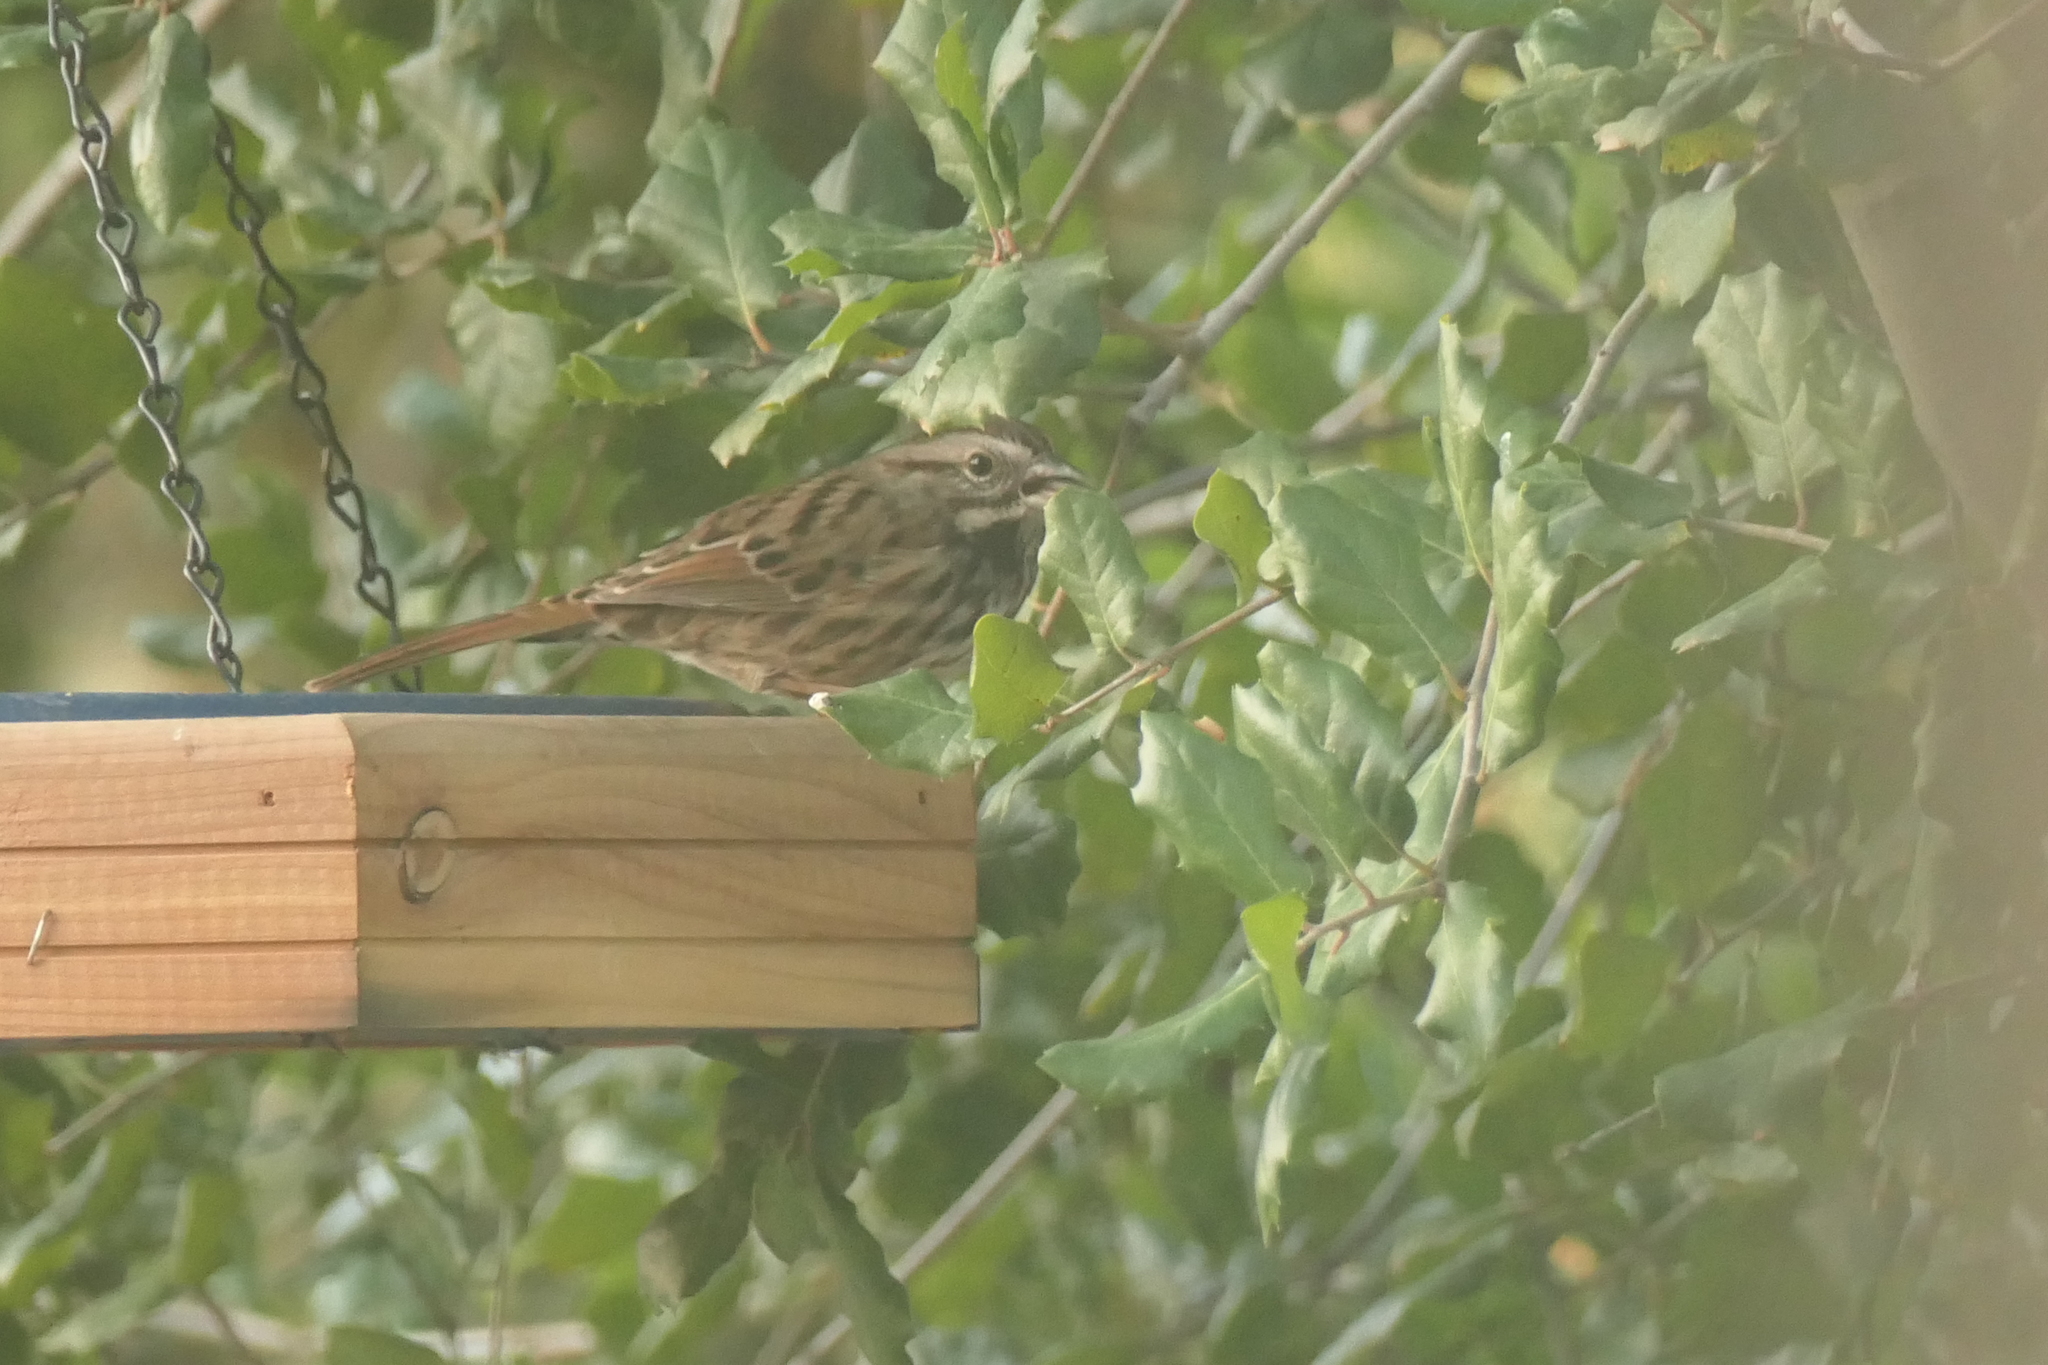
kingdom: Animalia
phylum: Chordata
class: Aves
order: Passeriformes
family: Passerellidae
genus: Melospiza
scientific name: Melospiza melodia
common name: Song sparrow
